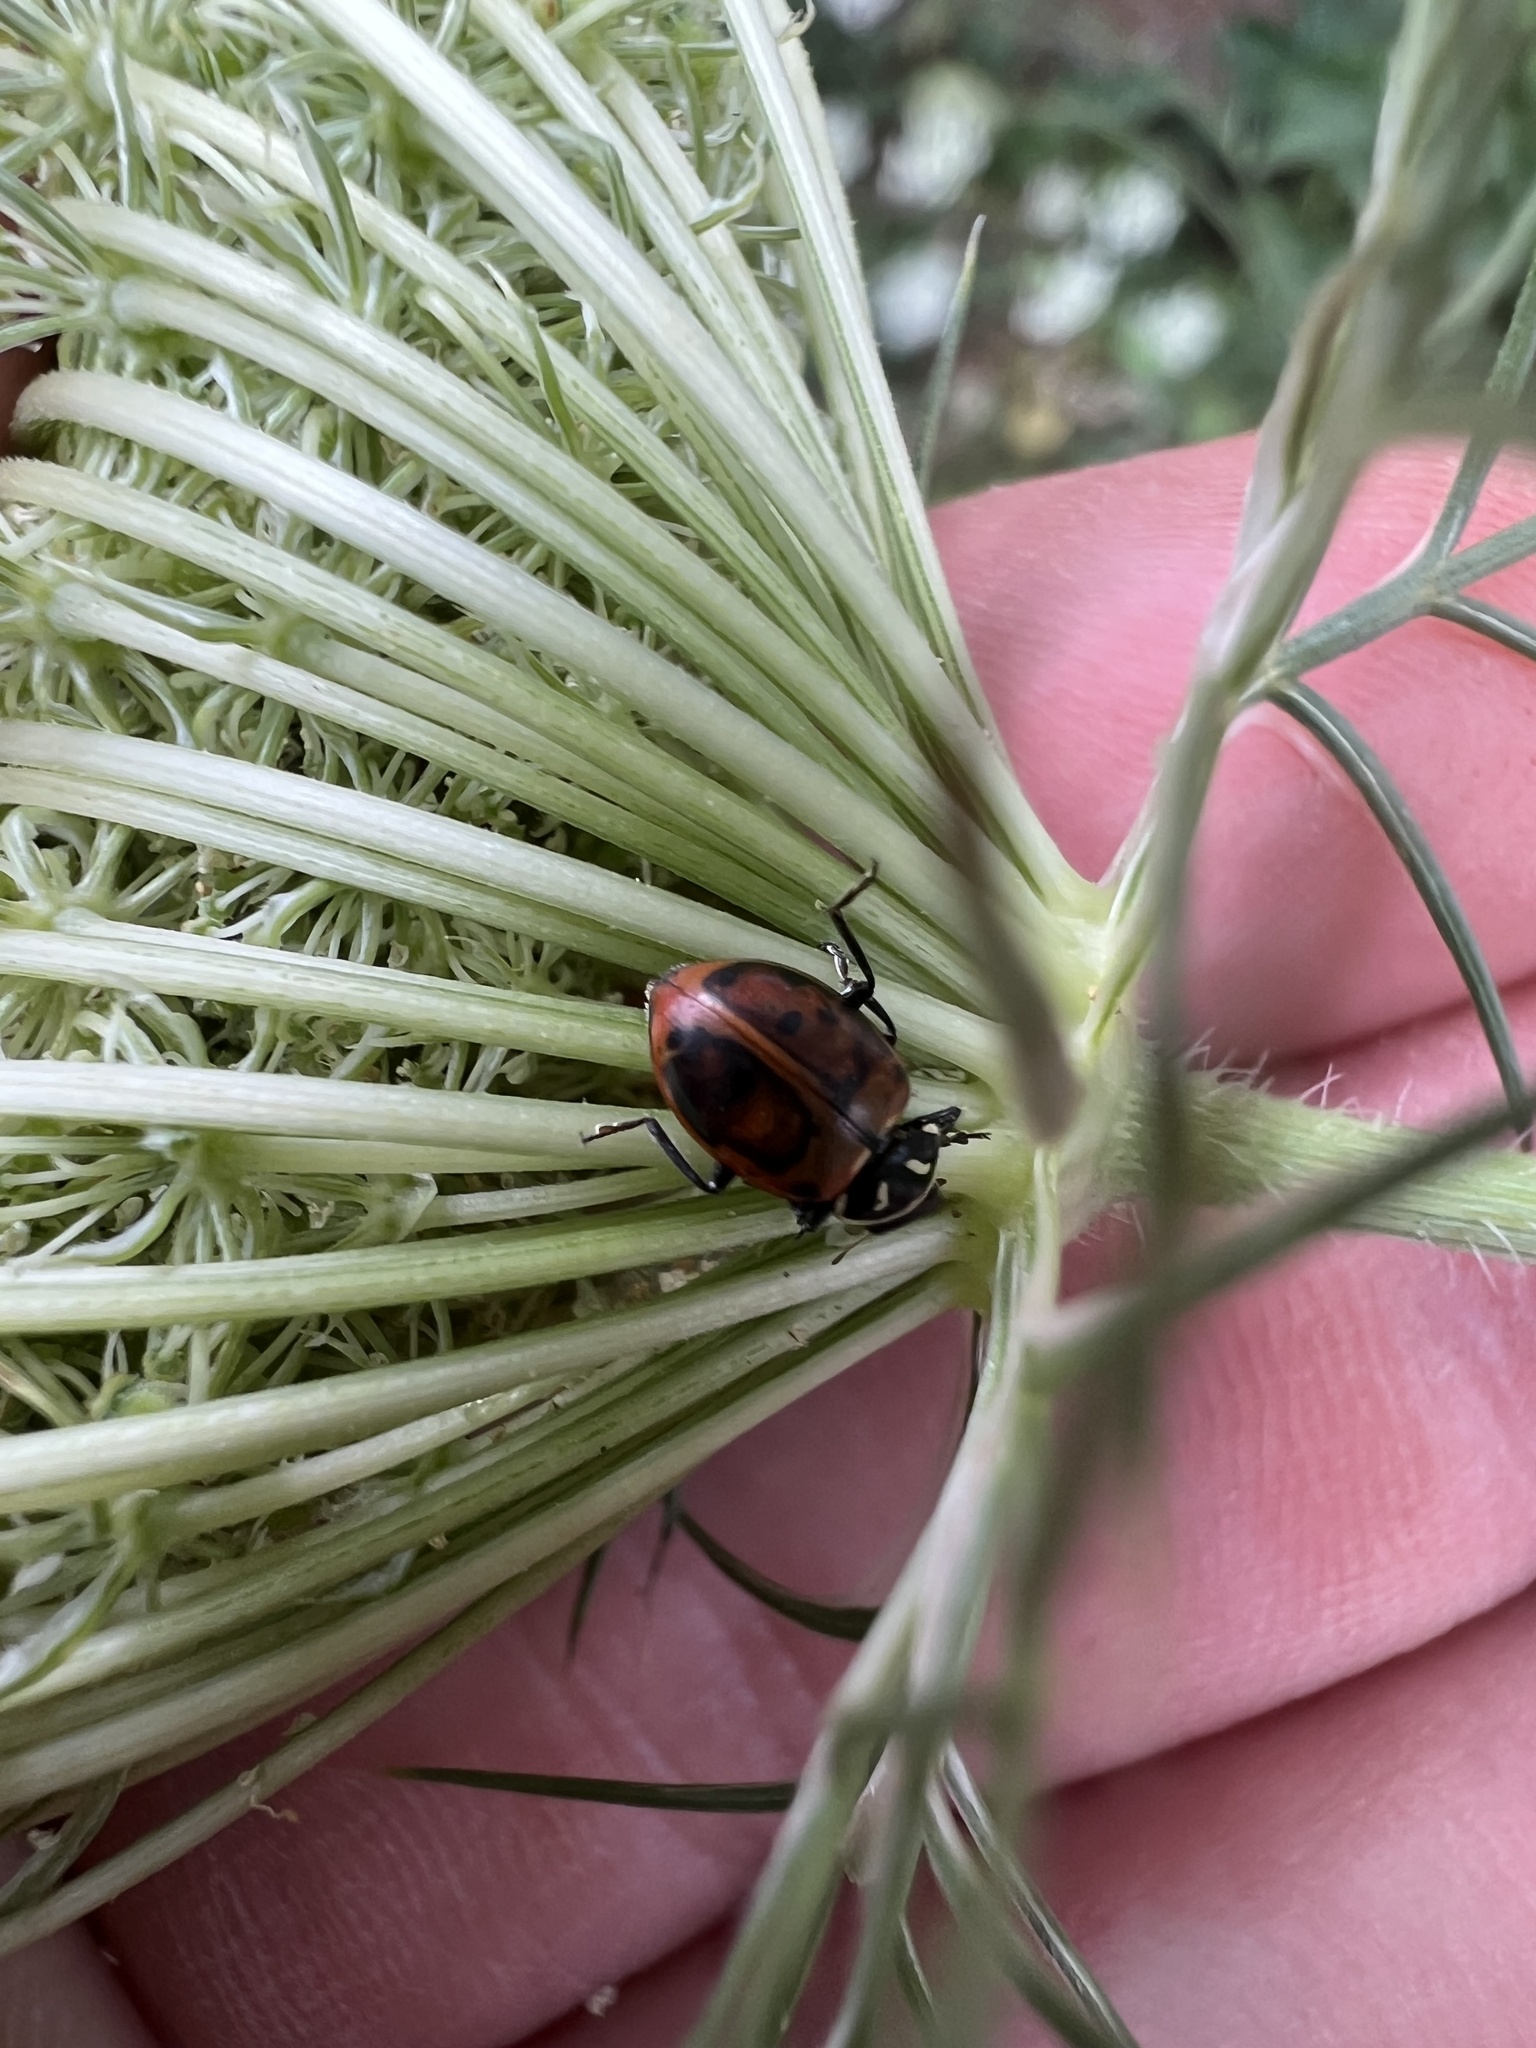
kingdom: Animalia
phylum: Arthropoda
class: Insecta
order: Coleoptera
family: Coccinellidae
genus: Hippodamia
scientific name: Hippodamia convergens
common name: Convergent lady beetle
